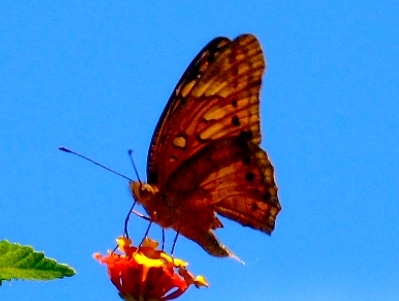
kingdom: Animalia
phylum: Arthropoda
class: Insecta
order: Lepidoptera
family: Nymphalidae
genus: Euptoieta
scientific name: Euptoieta hegesia
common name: Mexican fritillary
